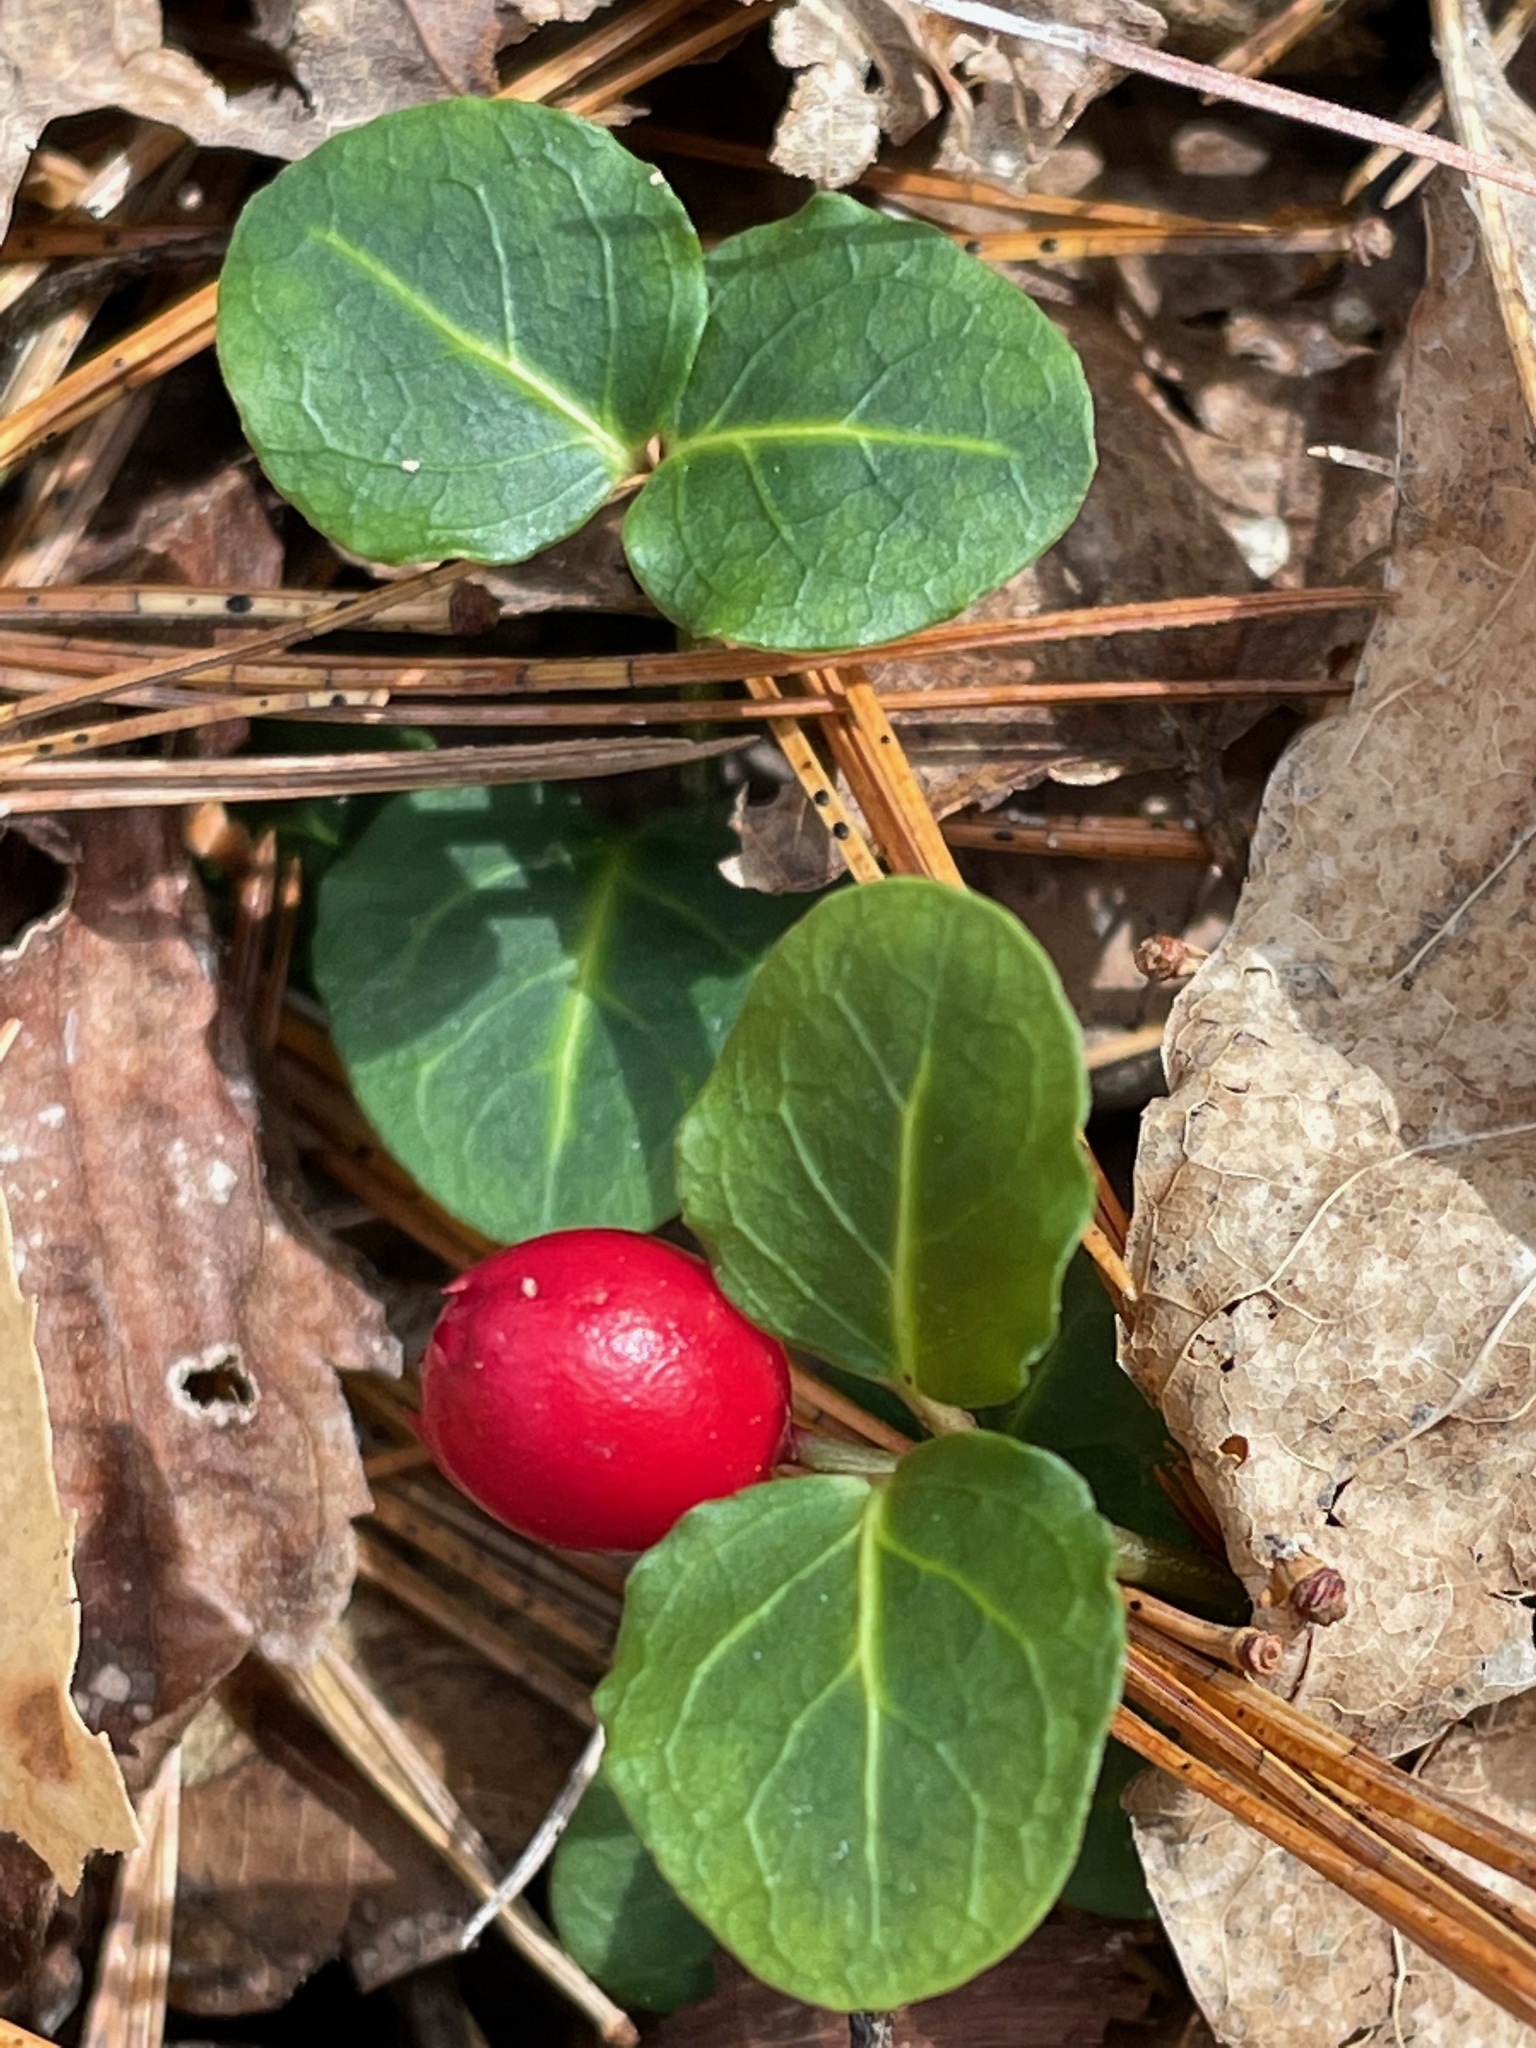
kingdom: Plantae
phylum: Tracheophyta
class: Magnoliopsida
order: Gentianales
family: Rubiaceae
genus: Mitchella
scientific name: Mitchella repens
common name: Partridge-berry
